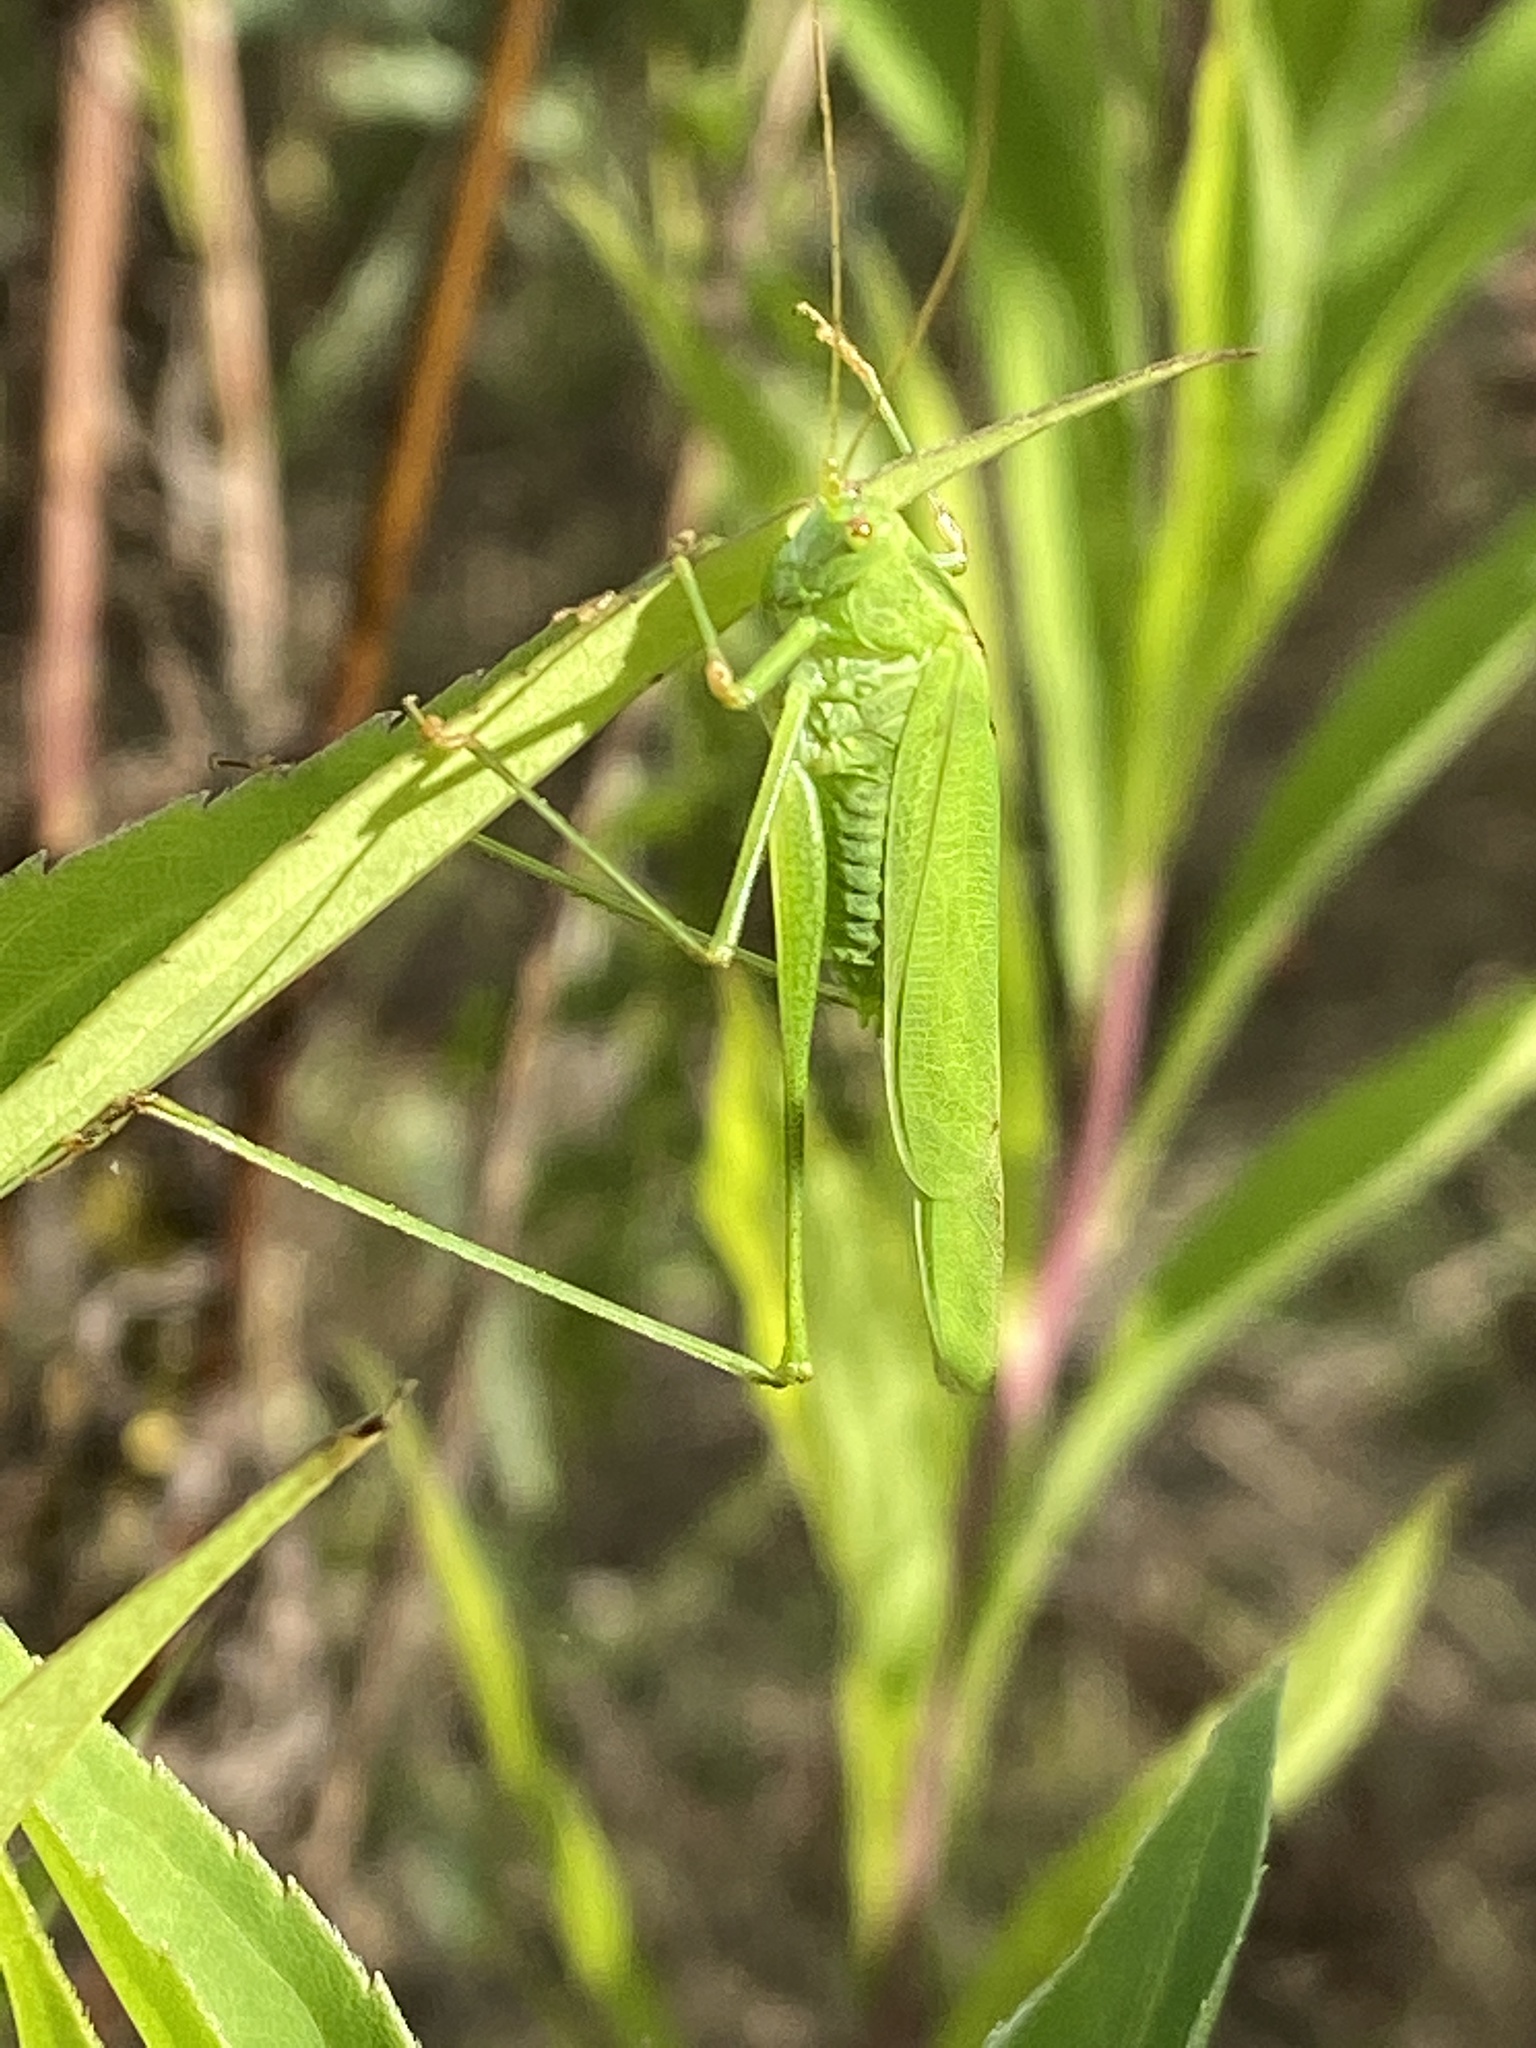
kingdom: Animalia
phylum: Arthropoda
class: Insecta
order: Orthoptera
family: Tettigoniidae
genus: Phaneroptera
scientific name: Phaneroptera falcata
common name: Sickle-bearing bush-cricket
